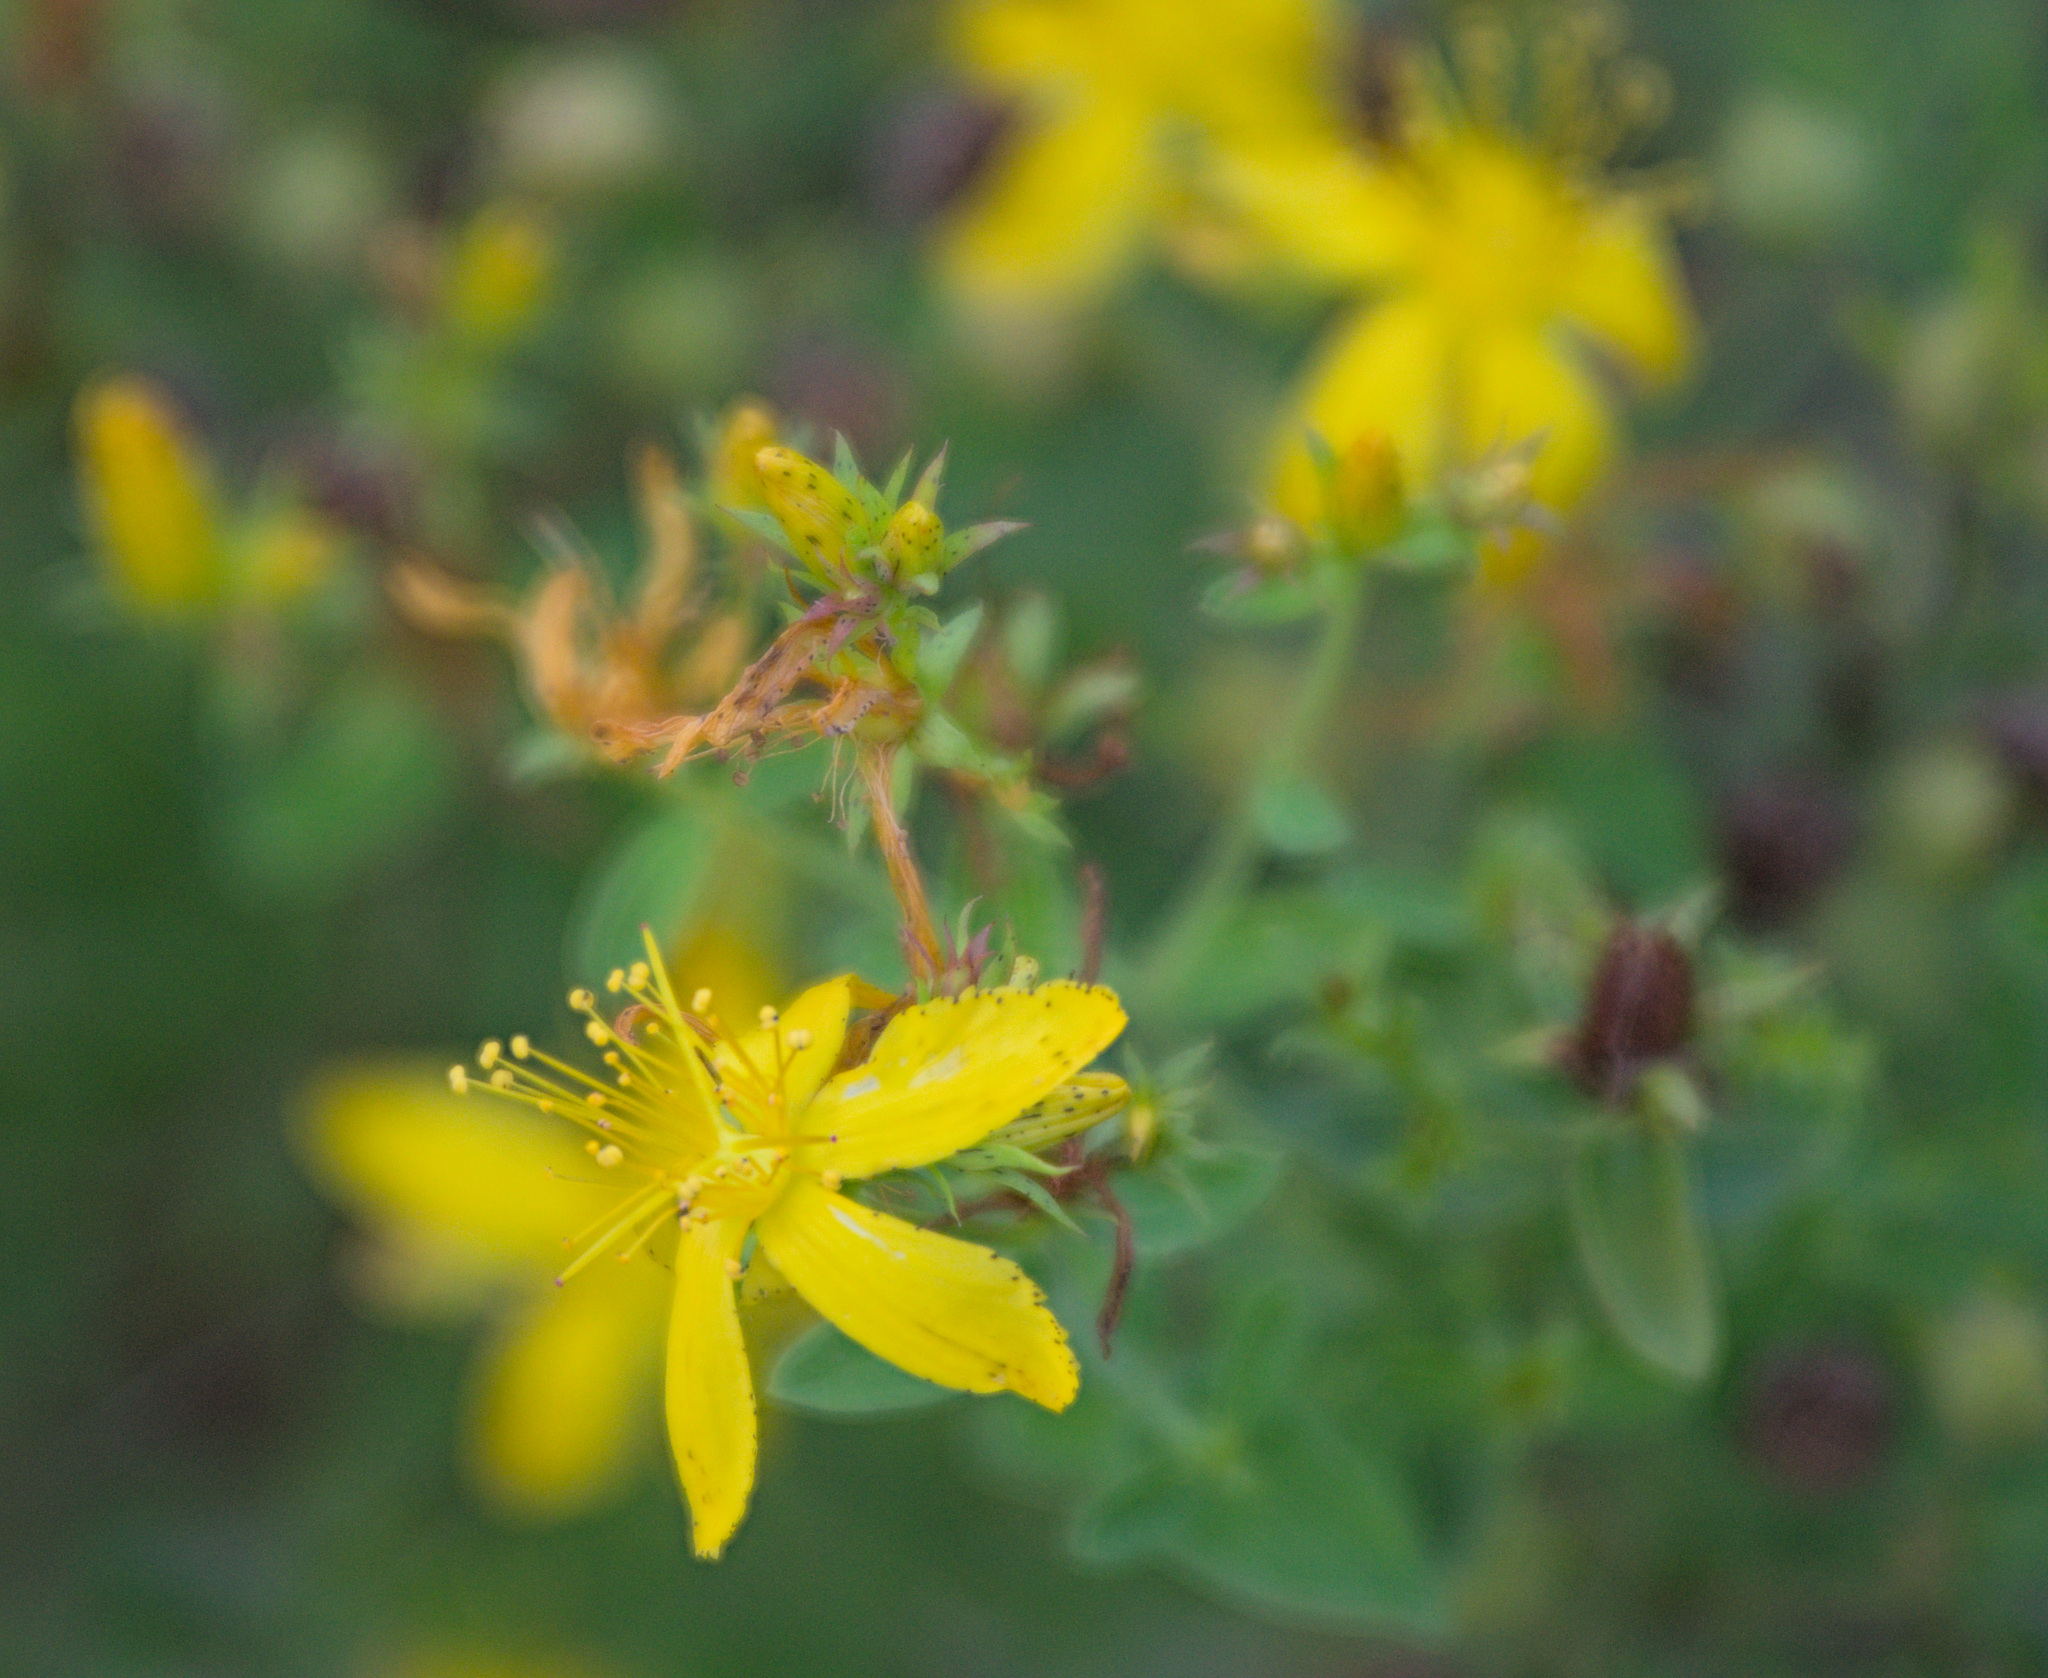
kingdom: Plantae
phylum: Tracheophyta
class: Magnoliopsida
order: Malpighiales
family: Hypericaceae
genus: Hypericum
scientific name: Hypericum perforatum
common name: Common st. johnswort
